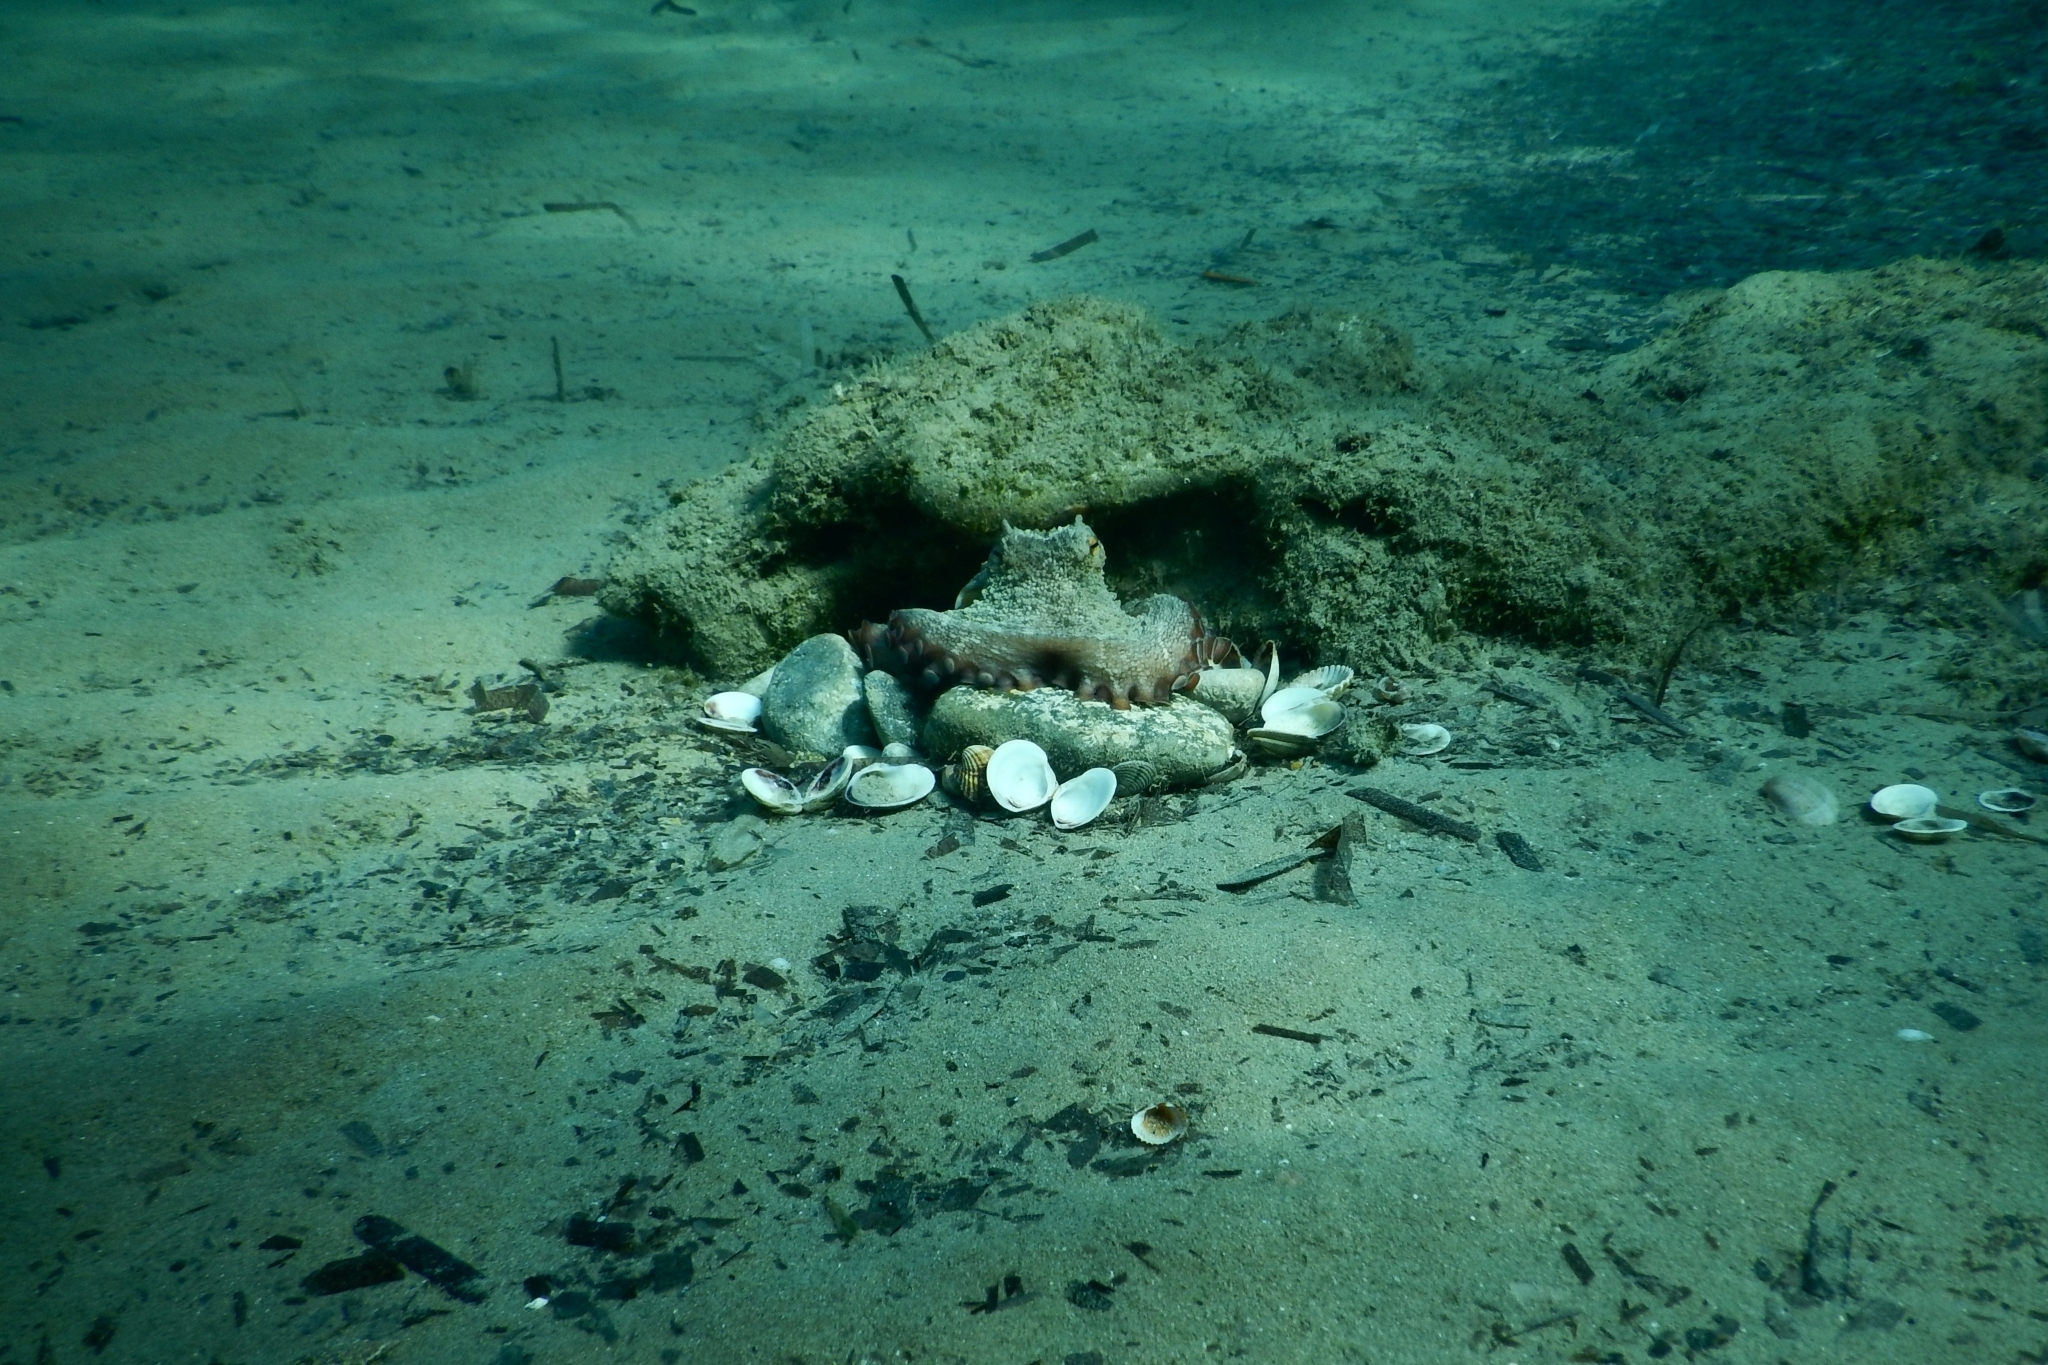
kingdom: Animalia
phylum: Mollusca
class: Cephalopoda
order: Octopoda
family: Octopodidae
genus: Octopus
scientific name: Octopus vulgaris
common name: Common octopus
